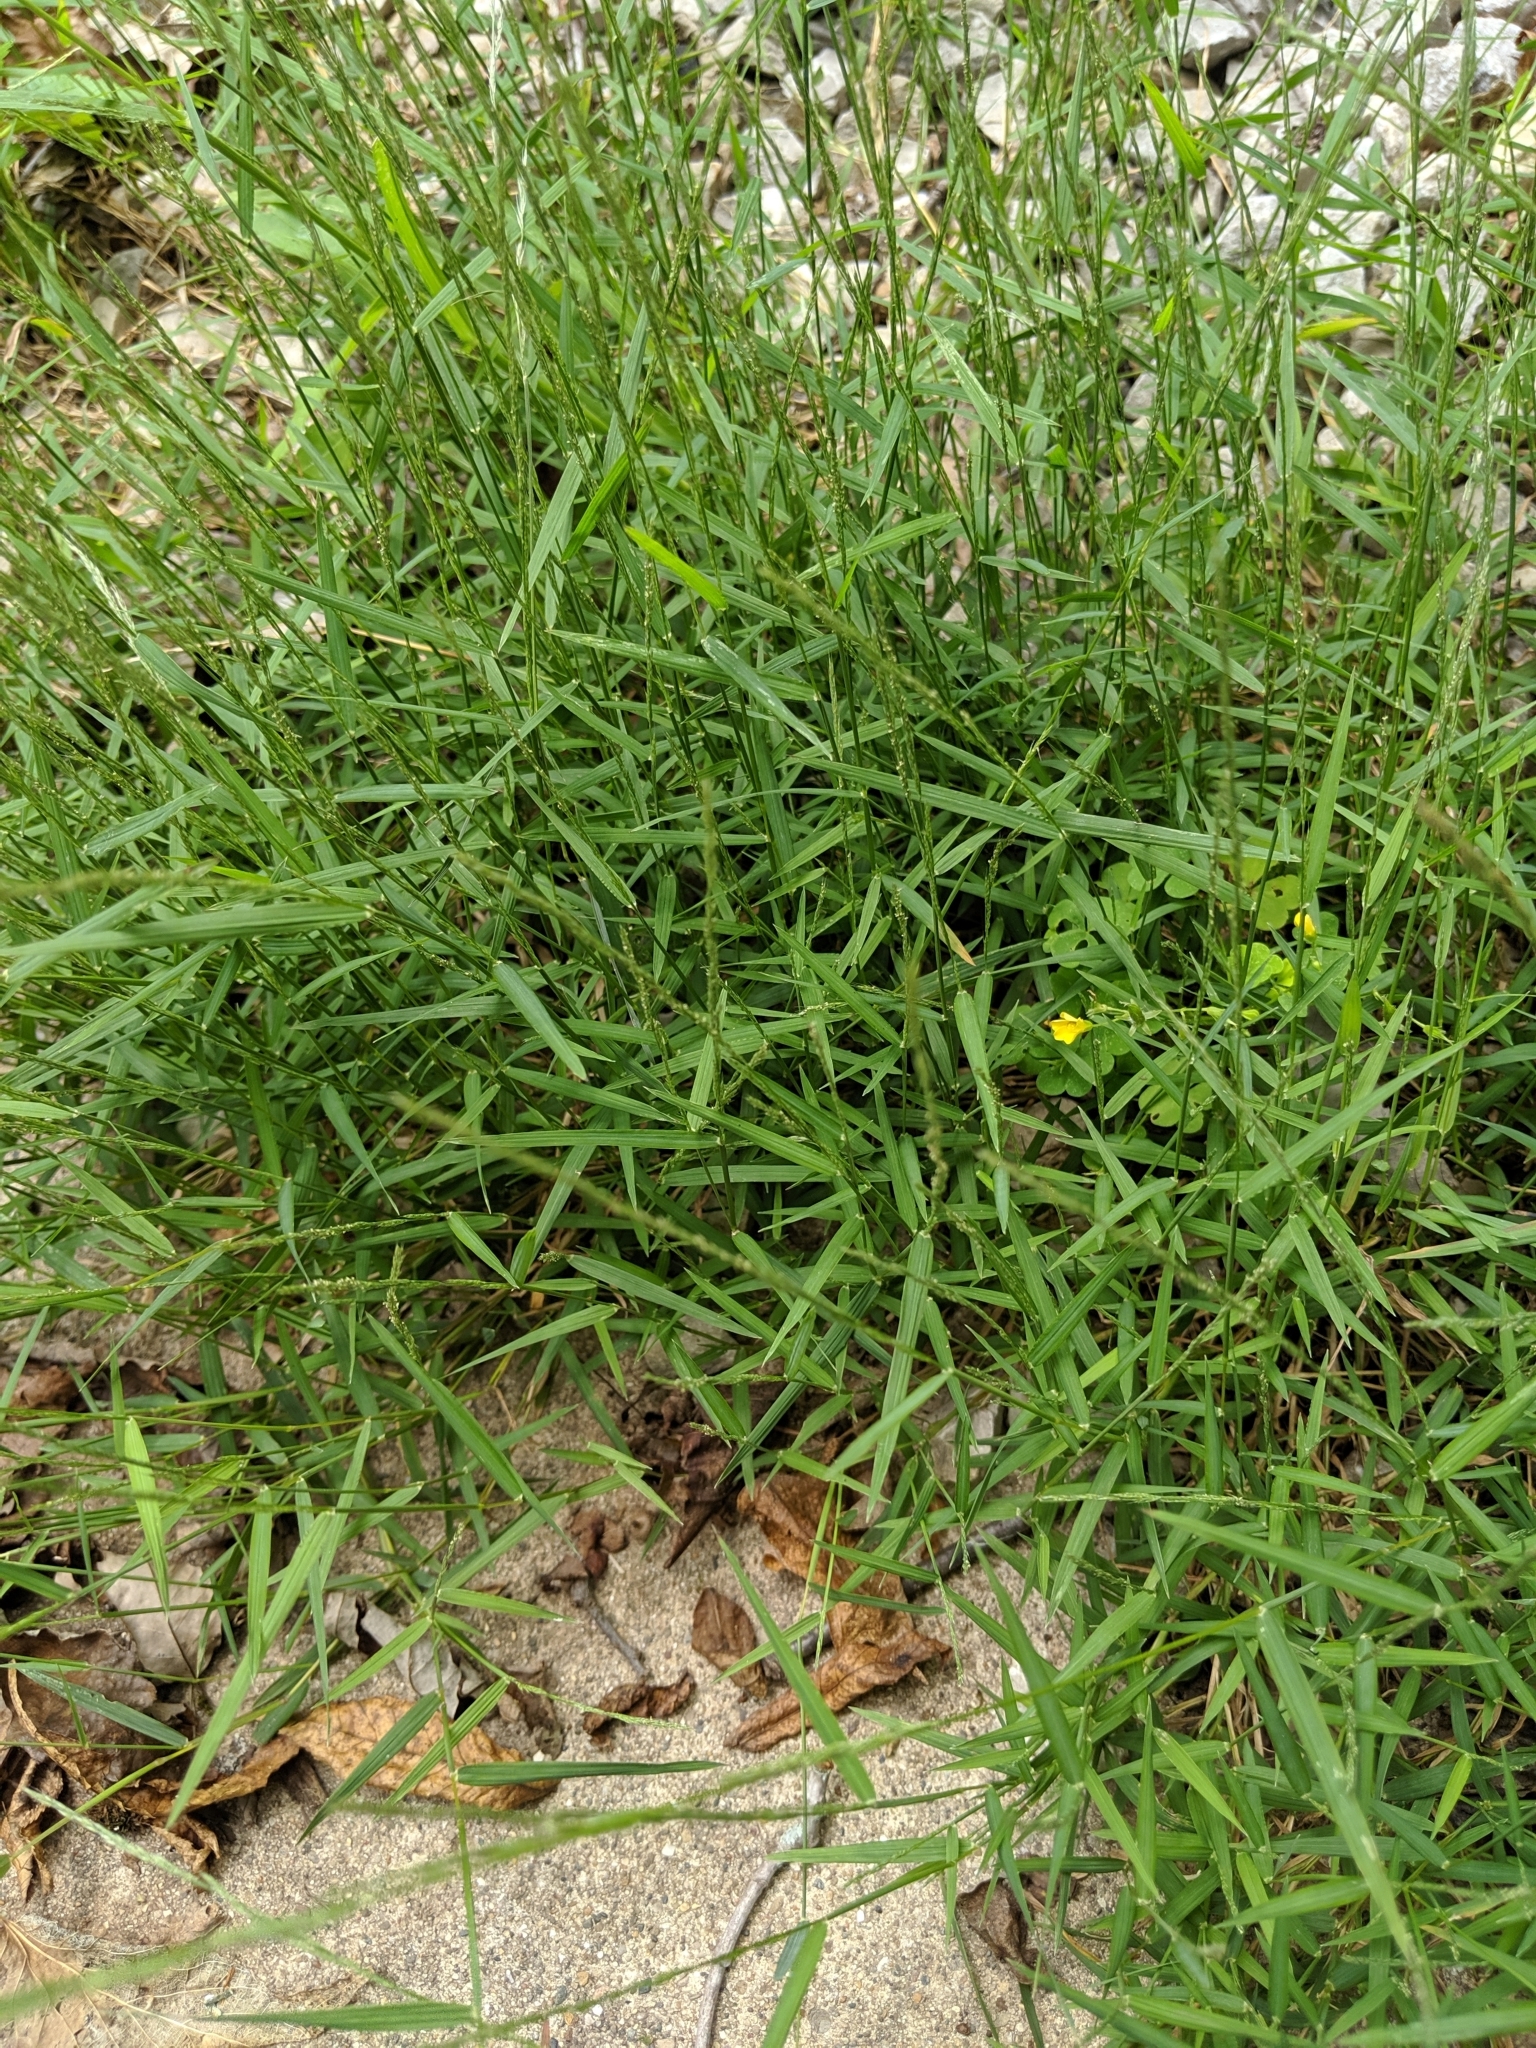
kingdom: Plantae
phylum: Tracheophyta
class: Liliopsida
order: Poales
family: Poaceae
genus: Muhlenbergia
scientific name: Muhlenbergia schreberi
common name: Nimblewill
